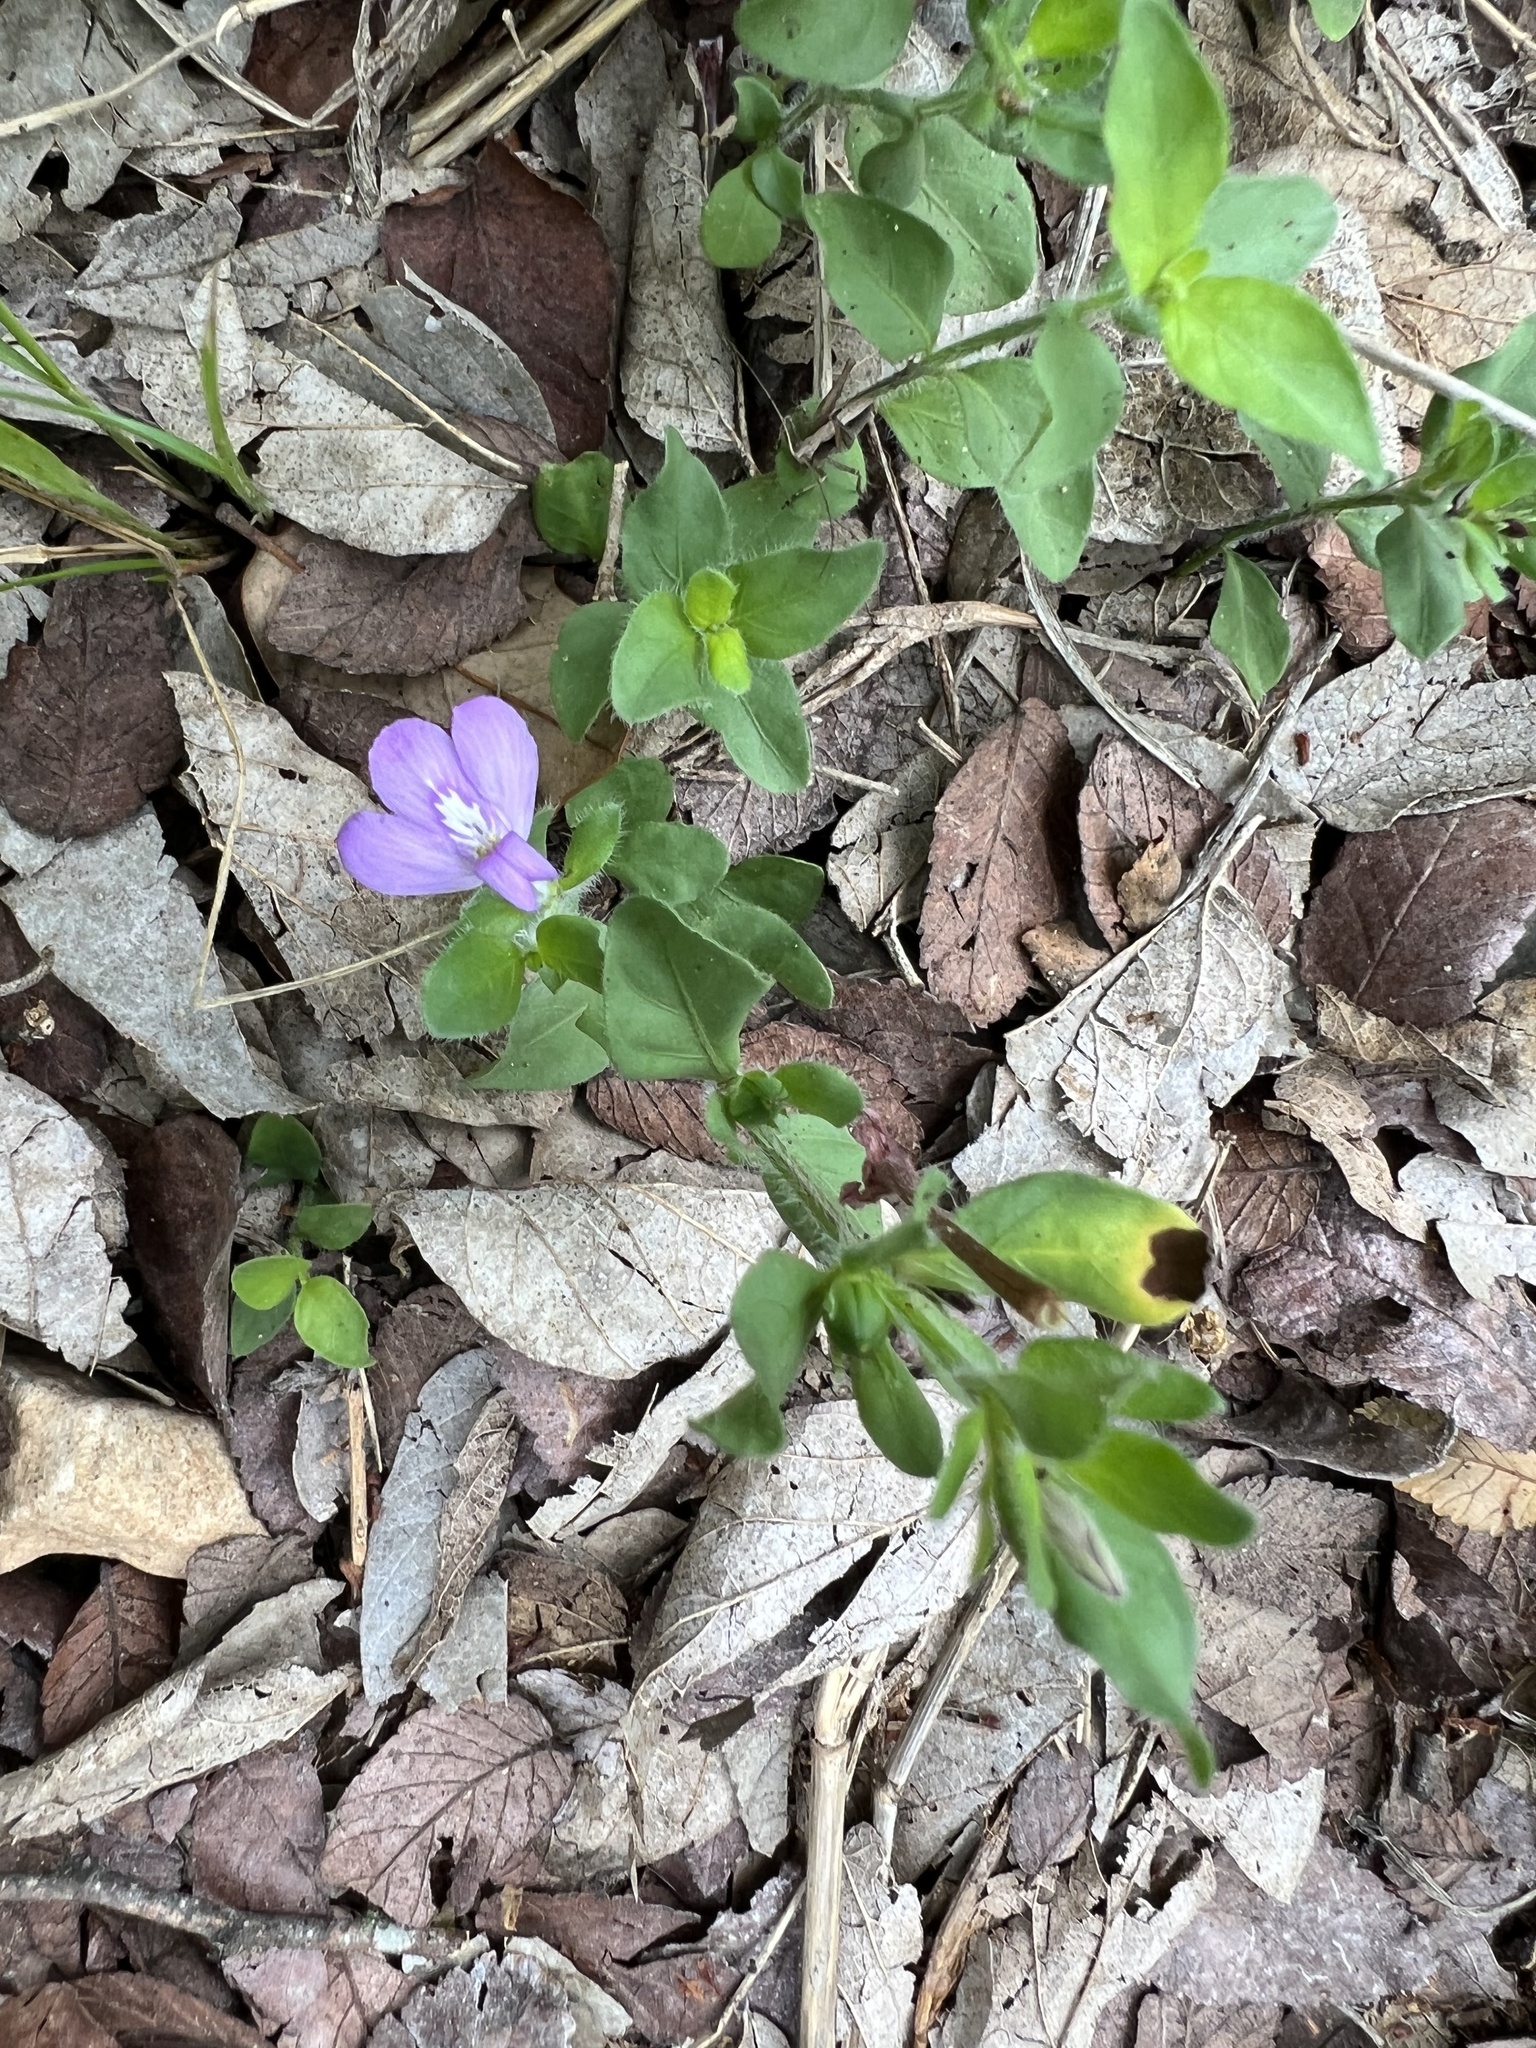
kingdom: Plantae
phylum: Tracheophyta
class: Magnoliopsida
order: Lamiales
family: Acanthaceae
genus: Justicia
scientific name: Justicia pilosella
